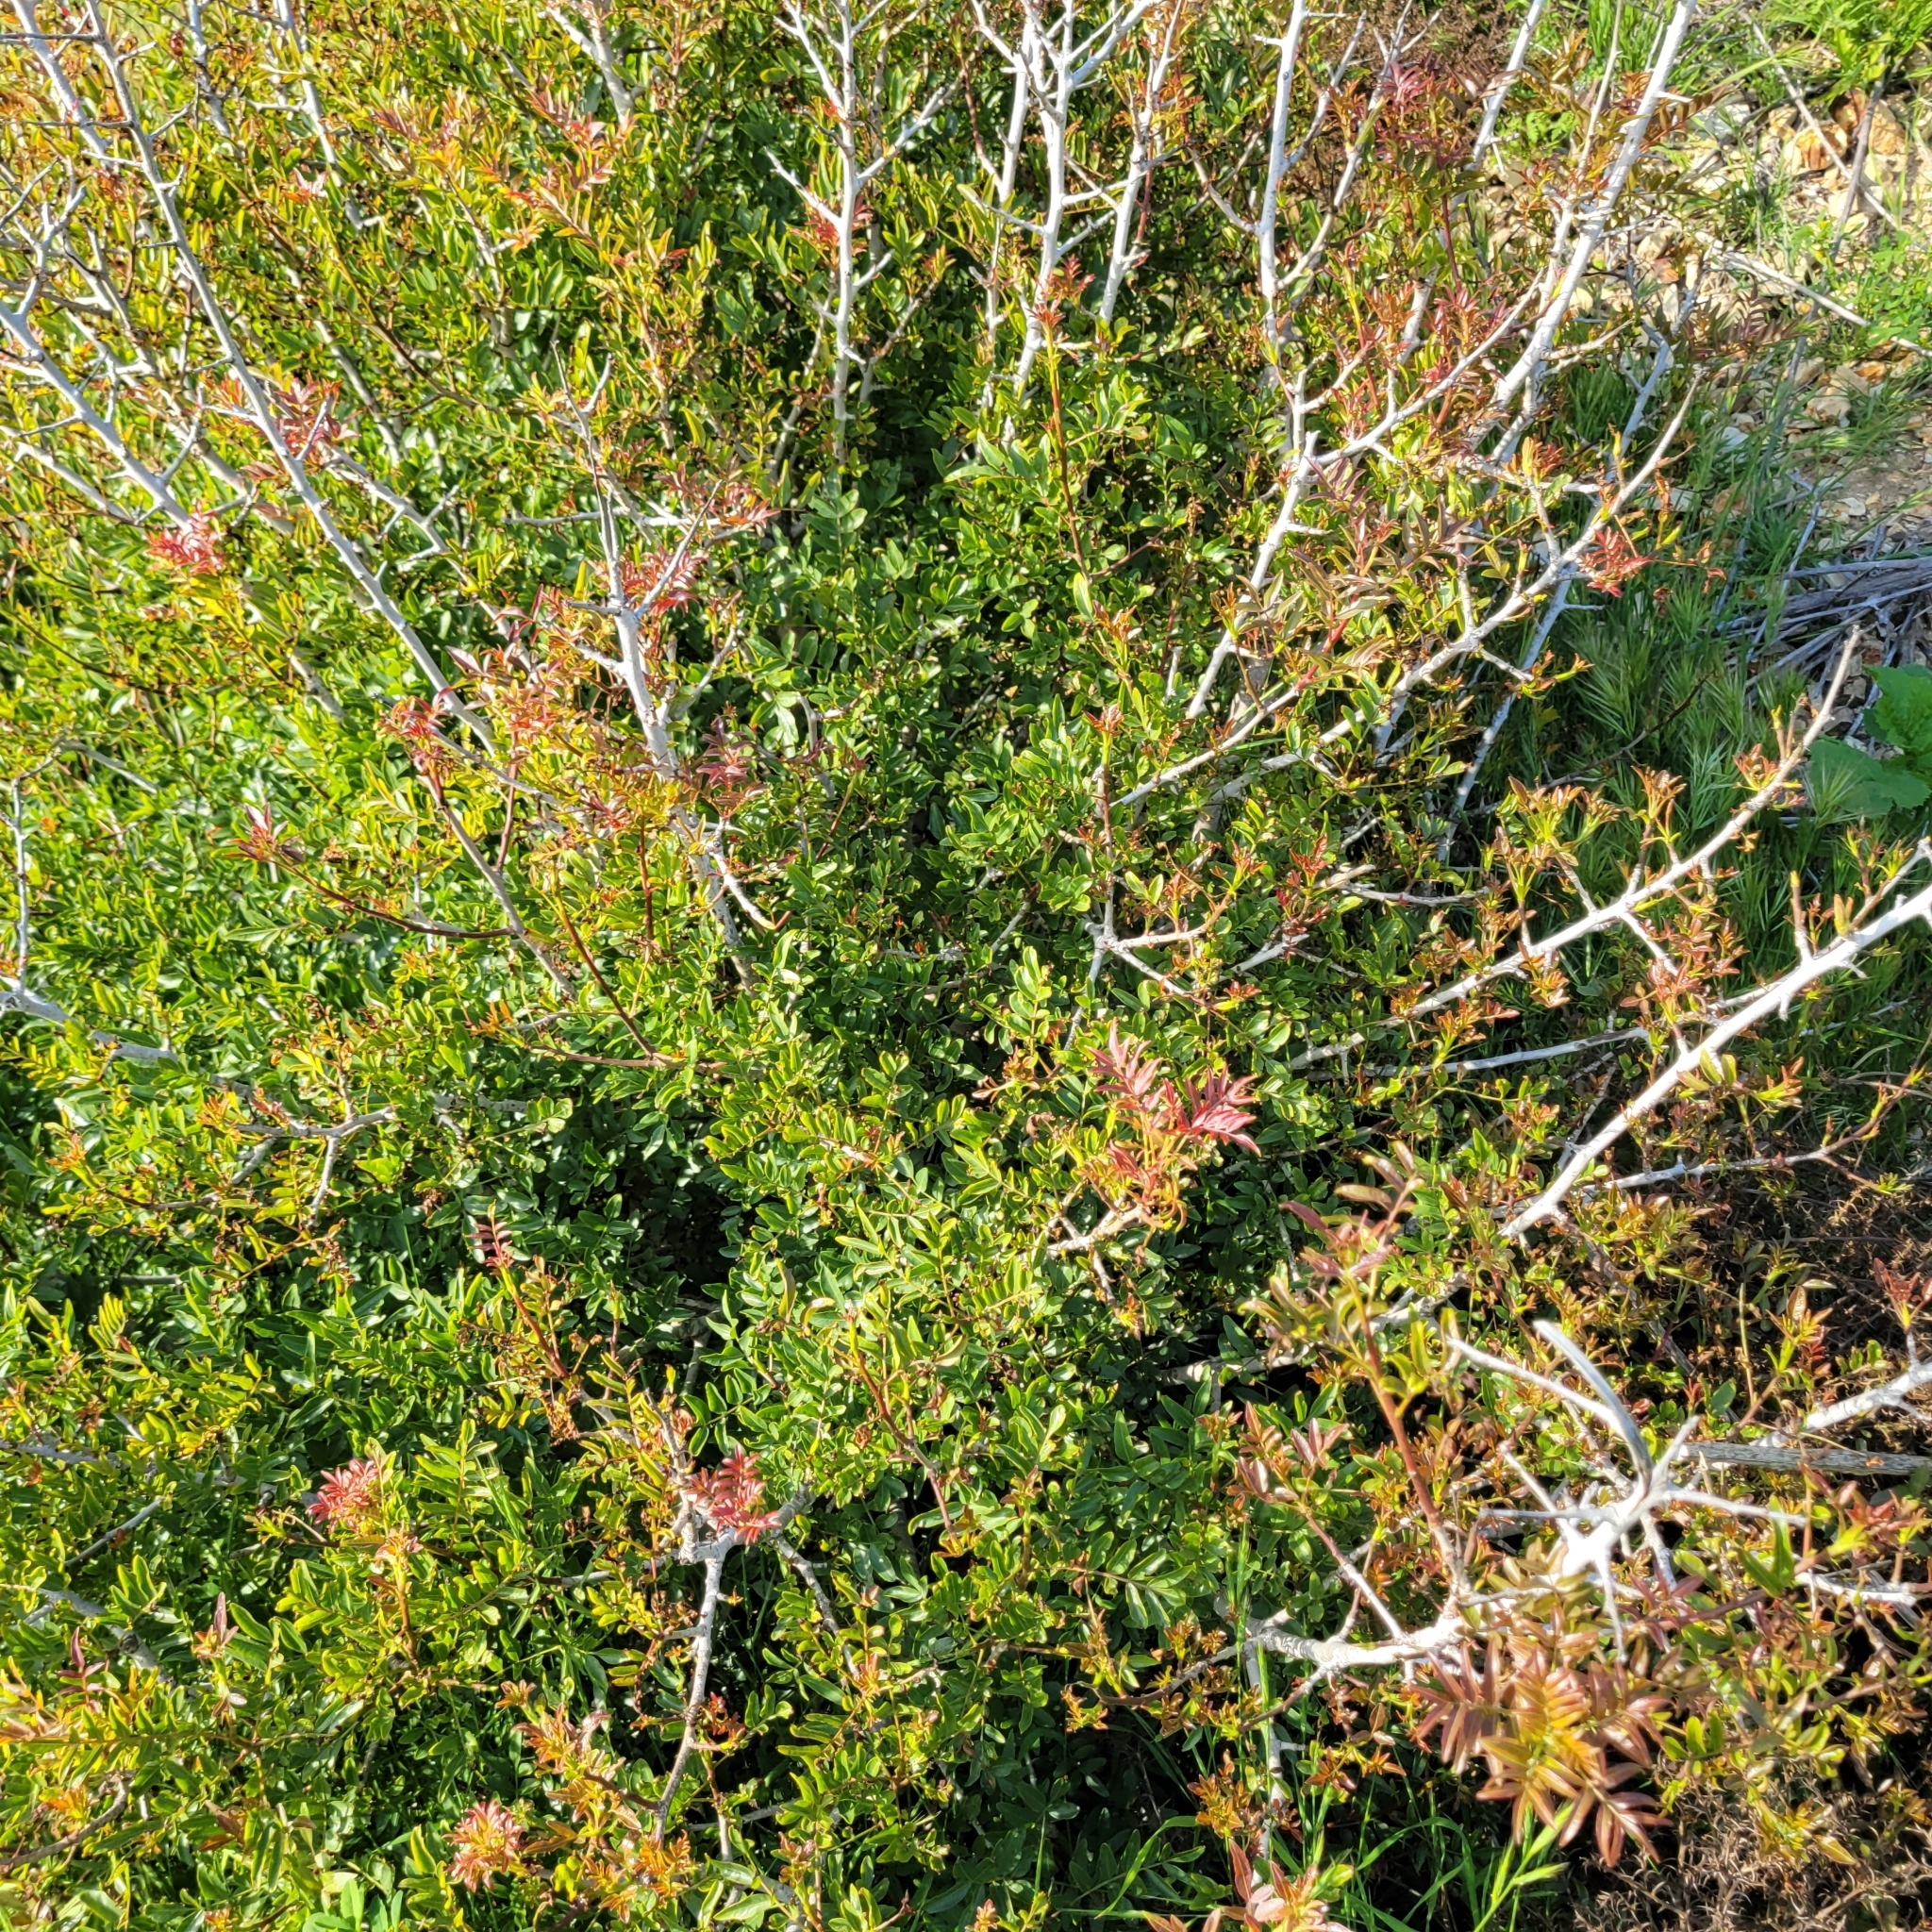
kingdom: Plantae
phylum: Tracheophyta
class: Magnoliopsida
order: Sapindales
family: Anacardiaceae
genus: Schinus
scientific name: Schinus terebinthifolia
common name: Brazilian peppertree
